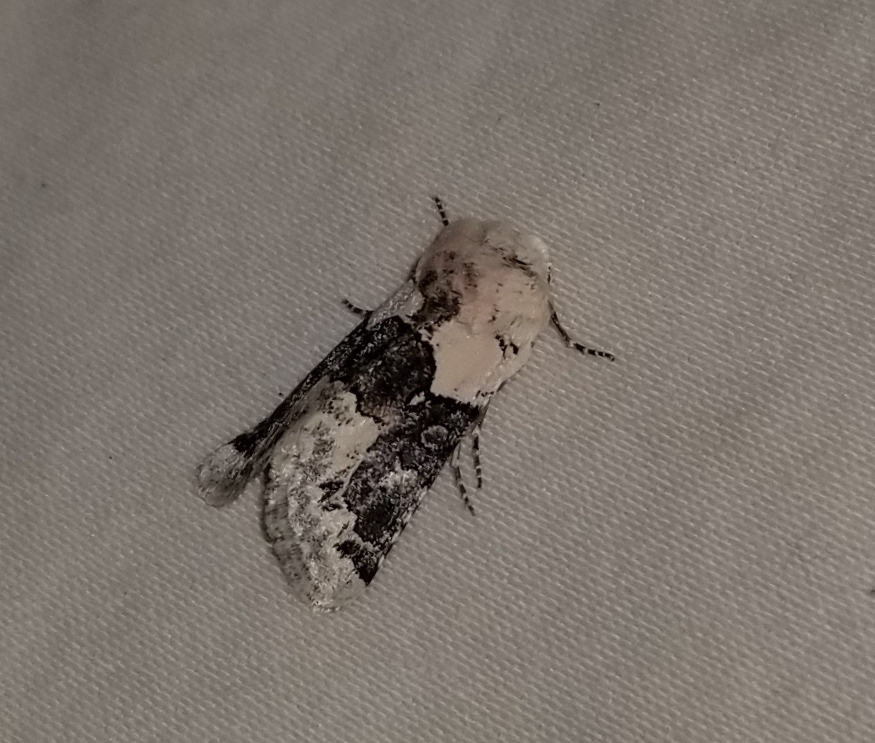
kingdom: Animalia
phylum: Arthropoda
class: Insecta
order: Lepidoptera
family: Noctuidae
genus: Triocnemis
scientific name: Triocnemis saporis
